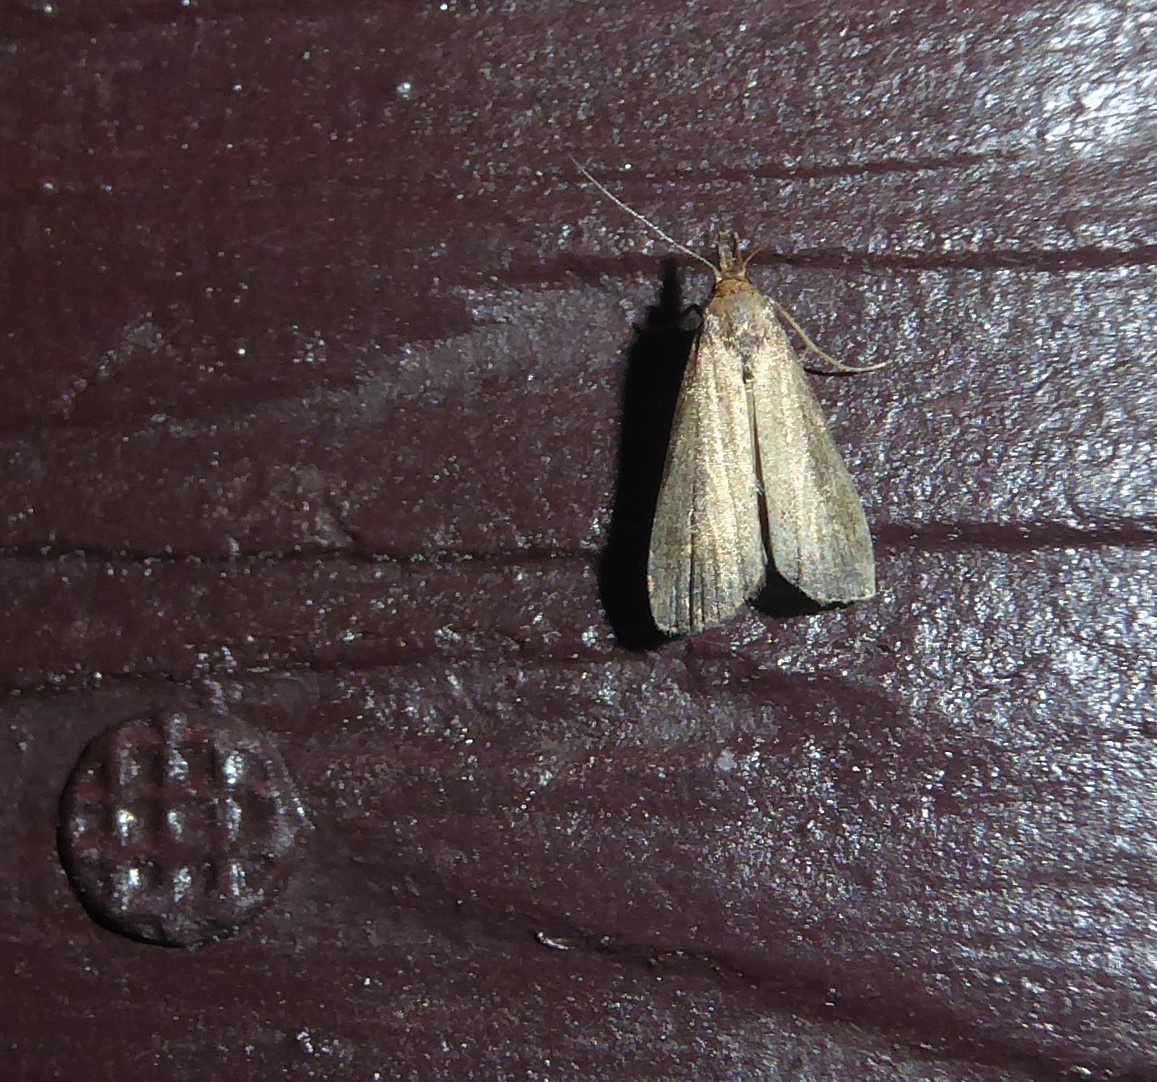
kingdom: Animalia
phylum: Arthropoda
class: Insecta
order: Lepidoptera
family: Erebidae
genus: Schrankia
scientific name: Schrankia costaestrigalis
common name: Pinion-streaked snout
